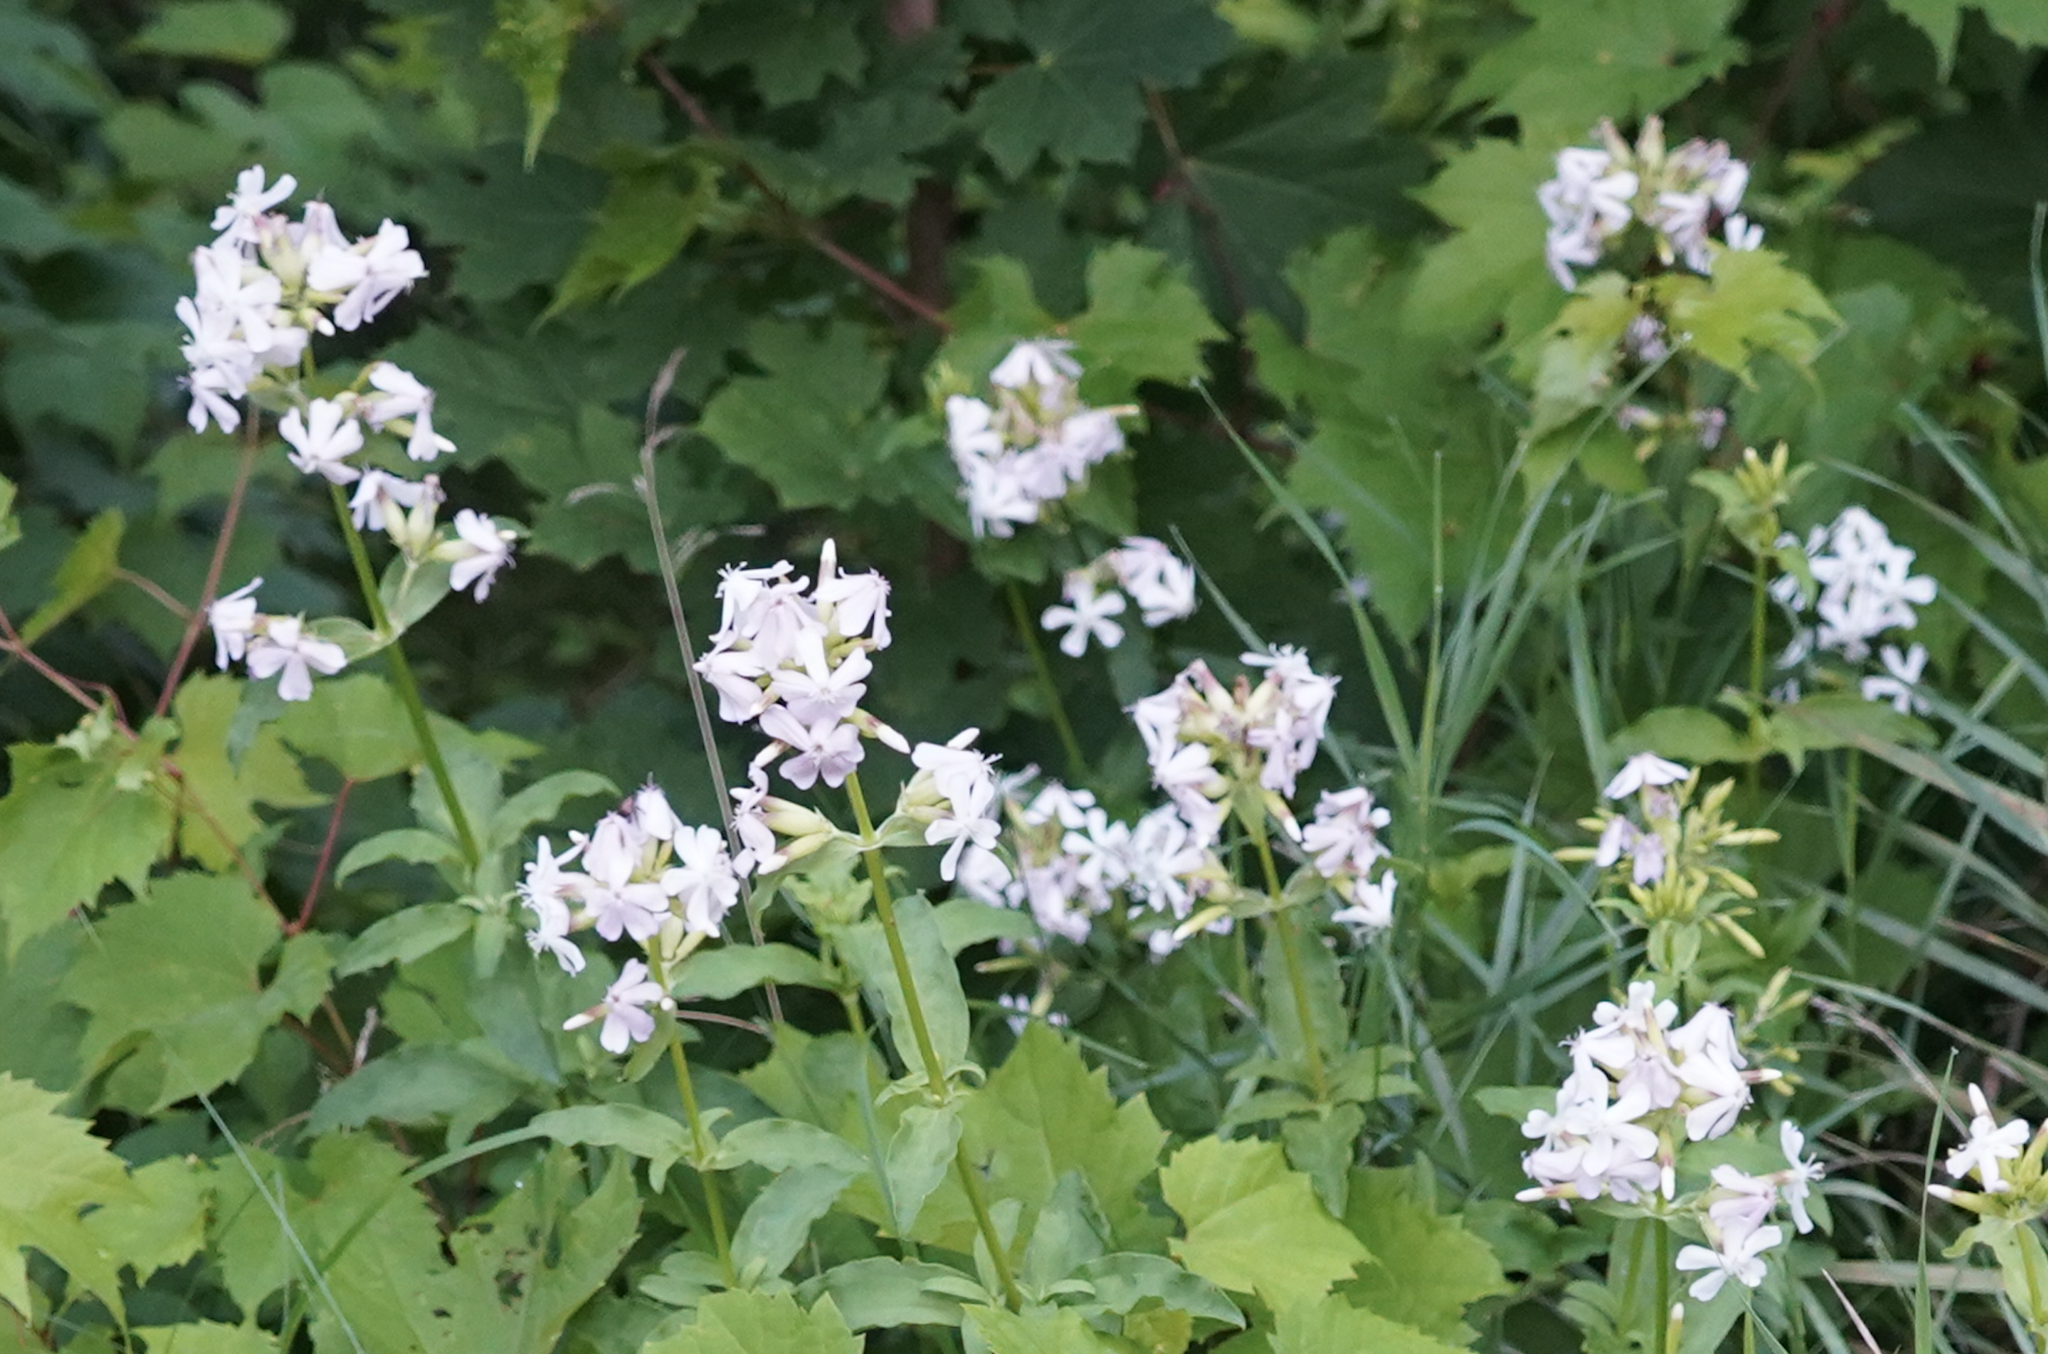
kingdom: Plantae
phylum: Tracheophyta
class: Magnoliopsida
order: Caryophyllales
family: Caryophyllaceae
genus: Saponaria
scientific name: Saponaria officinalis
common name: Soapwort
